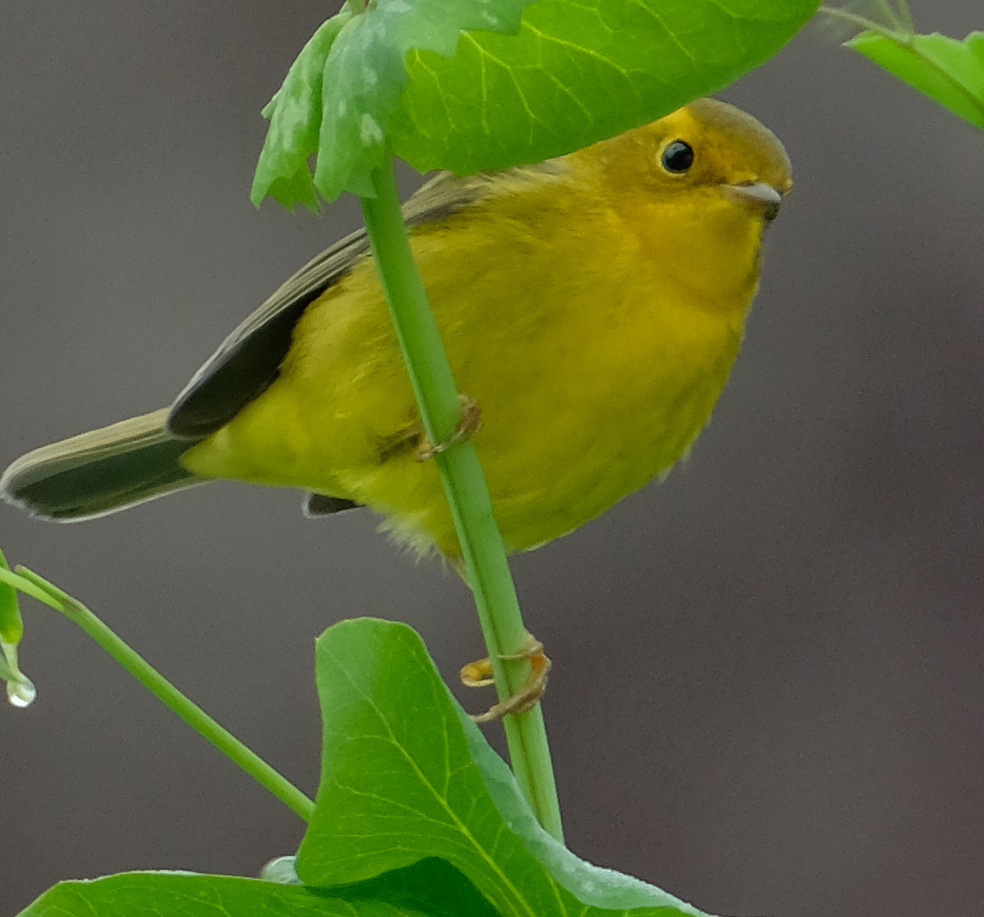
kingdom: Animalia
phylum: Chordata
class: Aves
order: Passeriformes
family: Parulidae
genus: Cardellina
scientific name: Cardellina pusilla
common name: Wilson's warbler
